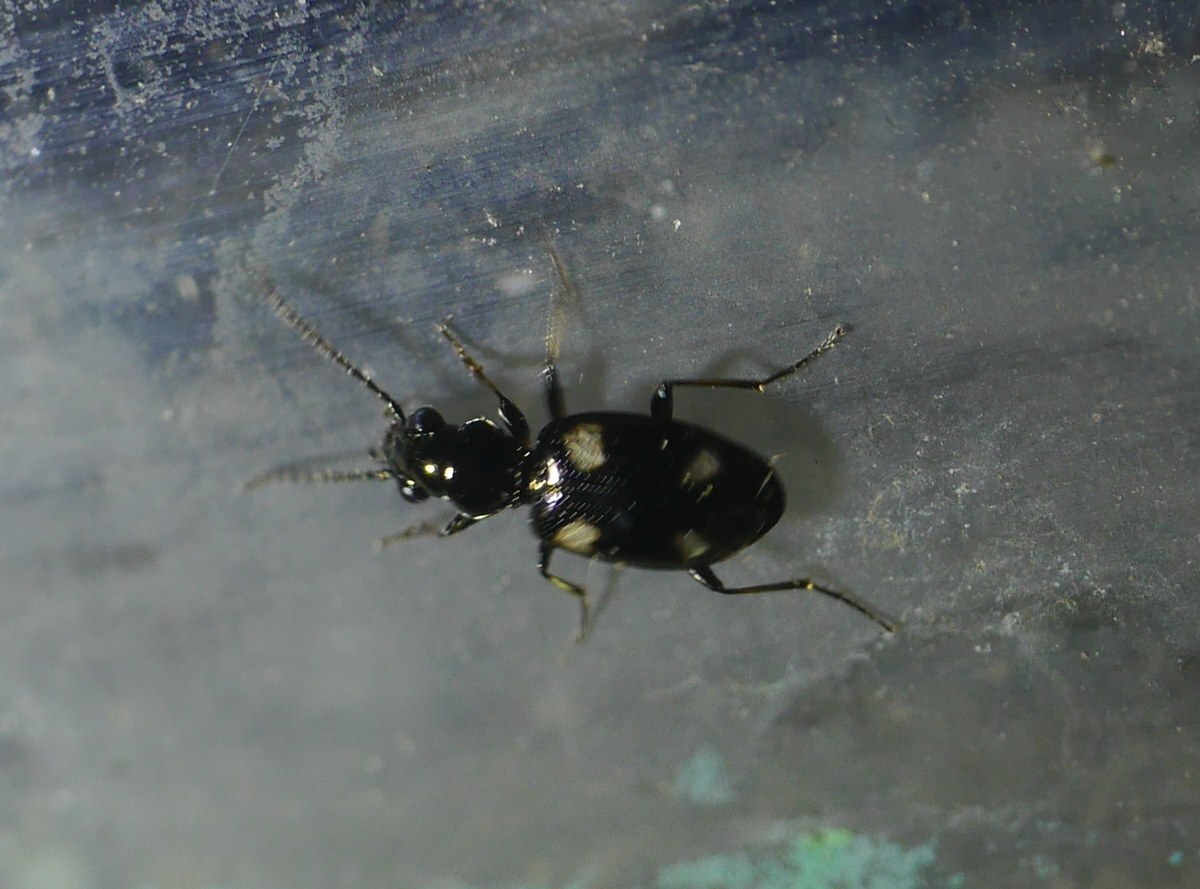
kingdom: Animalia
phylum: Arthropoda
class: Insecta
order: Coleoptera
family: Carabidae
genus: Bembidion
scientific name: Bembidion quadripustulatum
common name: Scarce four-dot pin-palp
